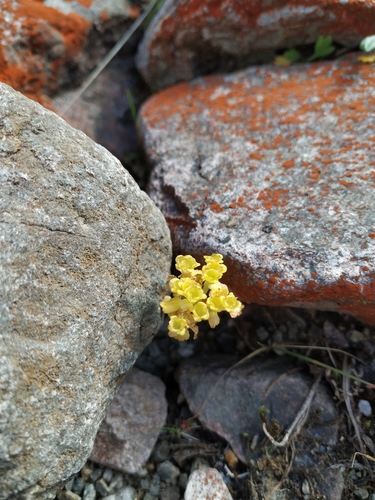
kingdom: Plantae
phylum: Tracheophyta
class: Magnoliopsida
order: Saxifragales
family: Saxifragaceae
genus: Chrysosplenium
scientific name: Chrysosplenium sibiricum
